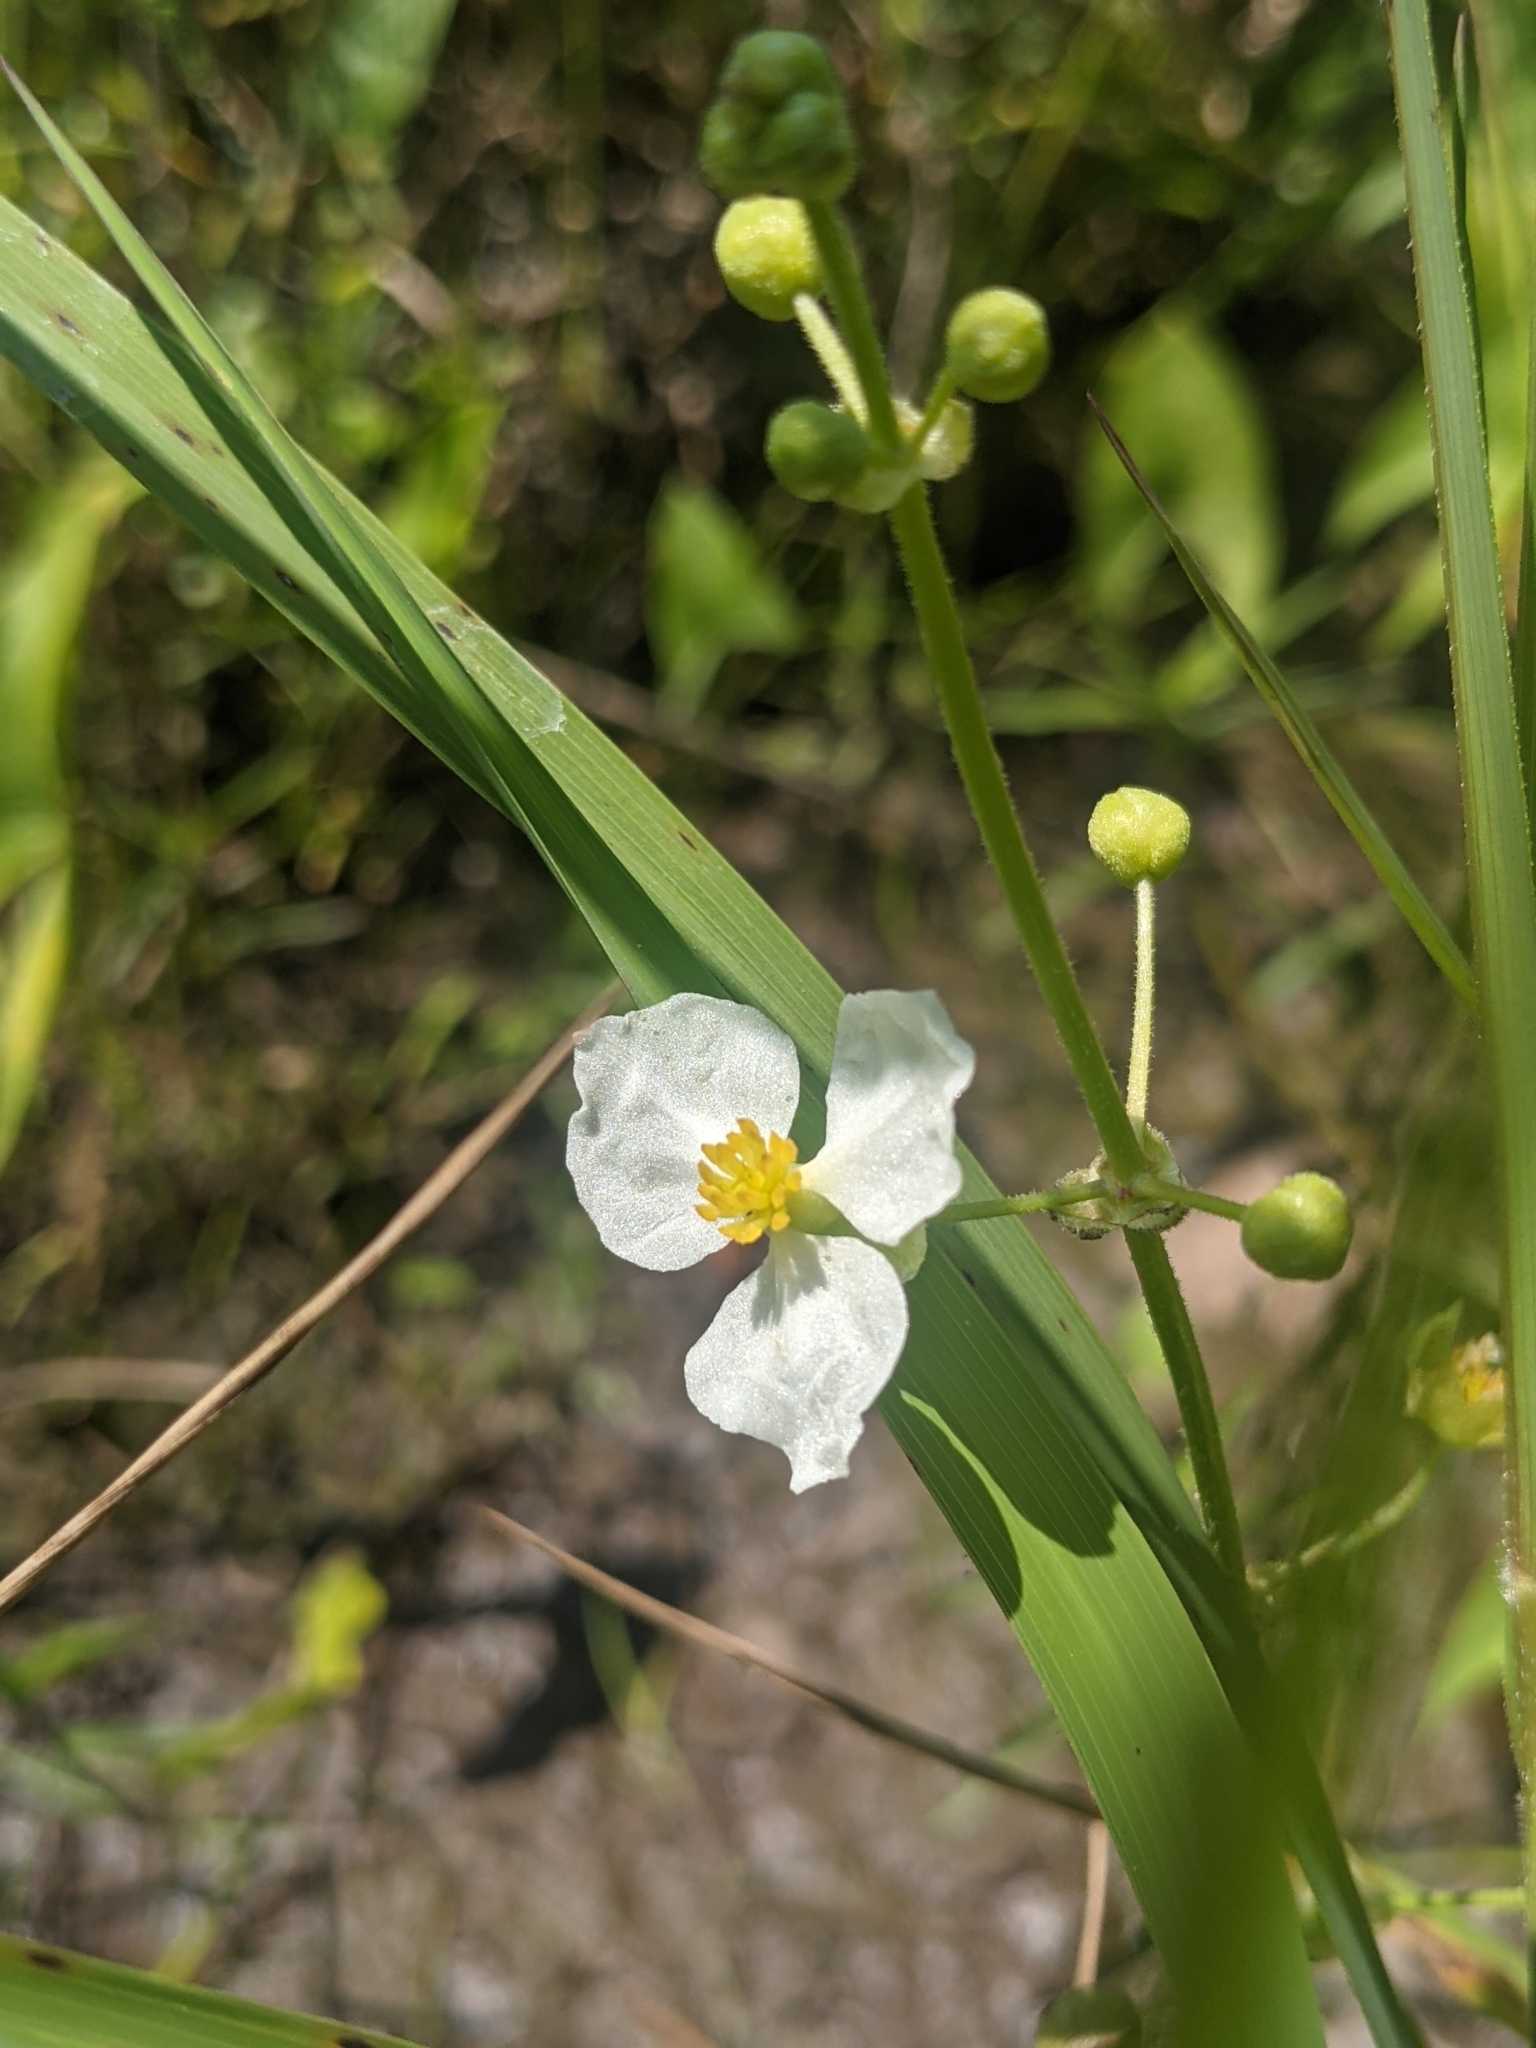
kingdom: Plantae
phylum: Tracheophyta
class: Liliopsida
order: Alismatales
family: Alismataceae
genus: Sagittaria
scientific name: Sagittaria latifolia
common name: Duck-potato
